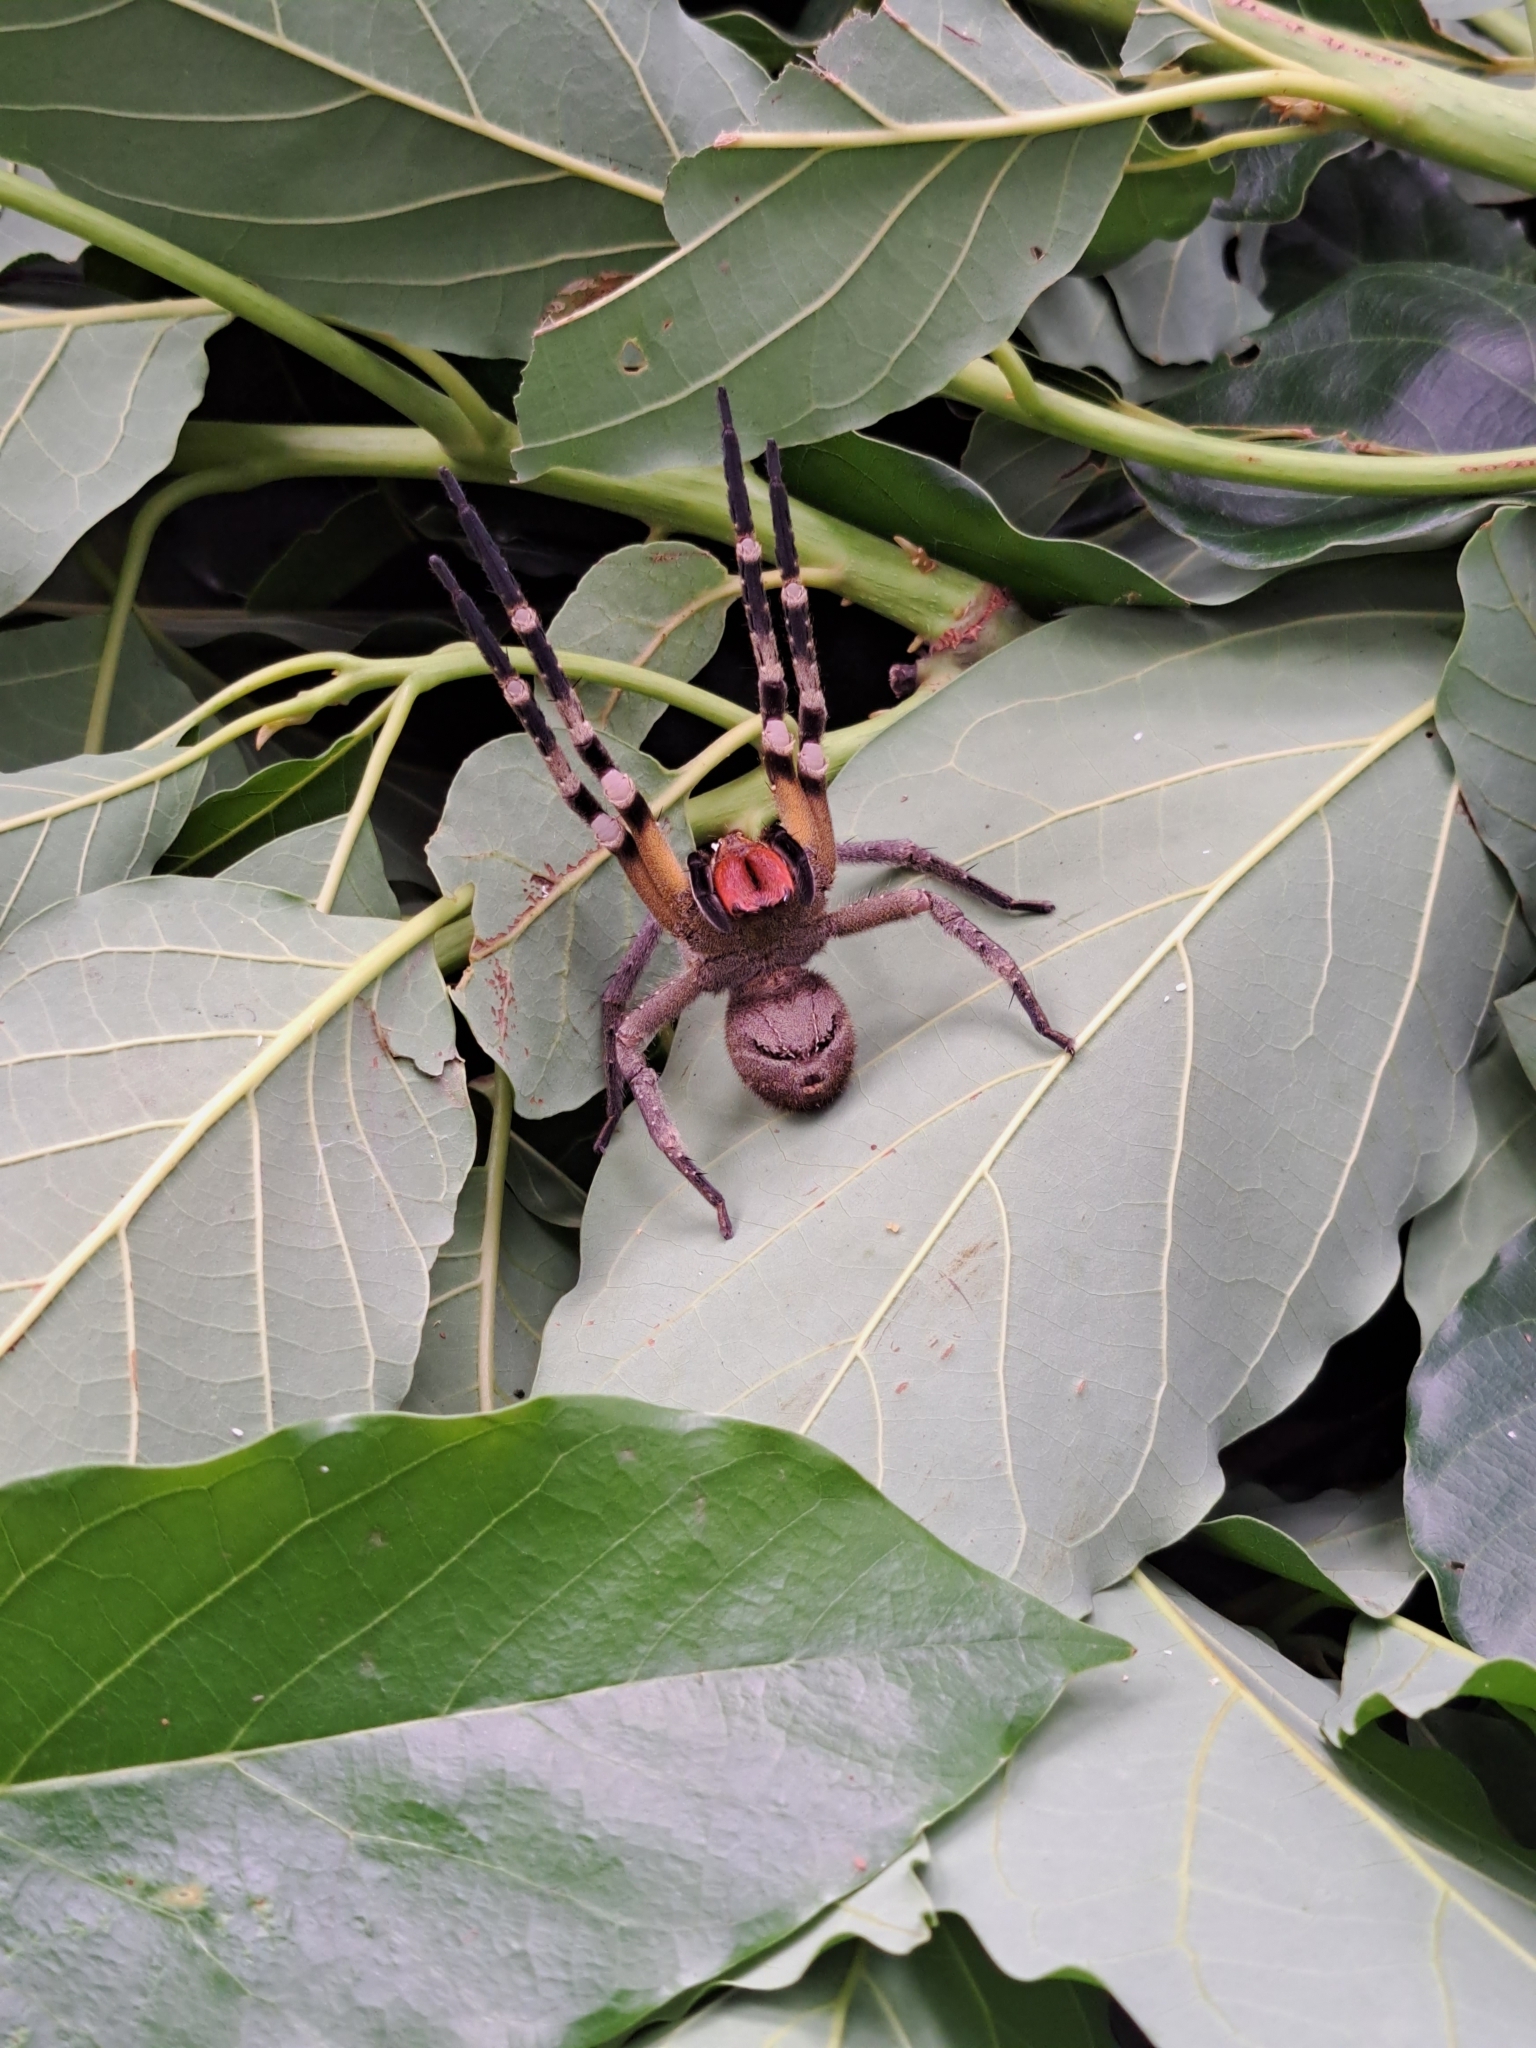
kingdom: Animalia
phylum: Arthropoda
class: Arachnida
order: Araneae
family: Ctenidae
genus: Phoneutria
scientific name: Phoneutria pertyi
